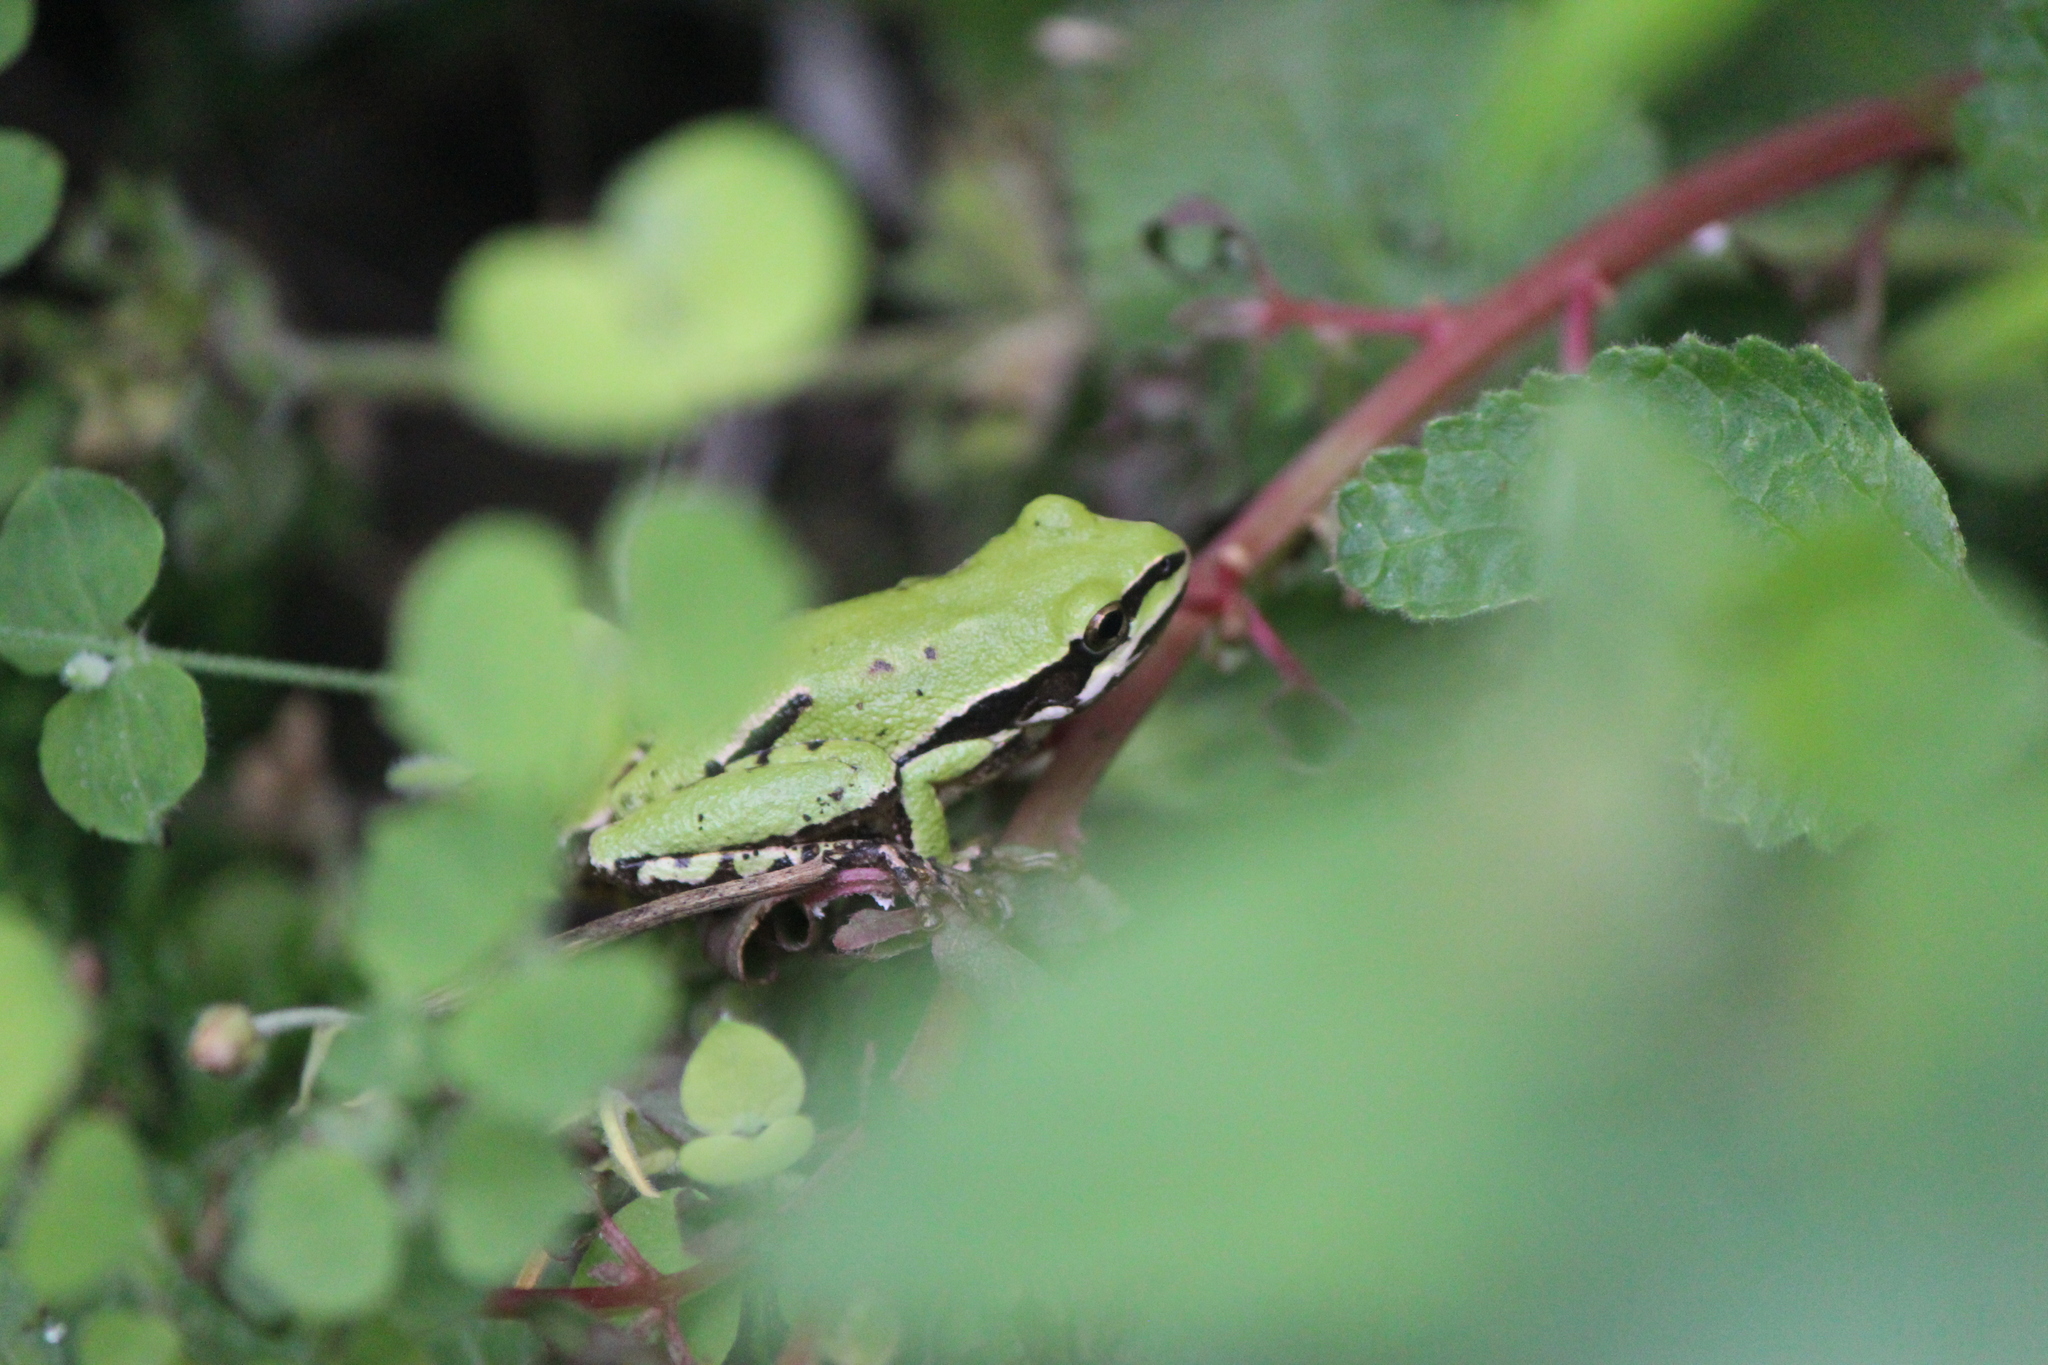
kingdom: Animalia
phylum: Chordata
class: Amphibia
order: Anura
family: Hylidae
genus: Dryophytes
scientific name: Dryophytes eximius
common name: Mountain treefrog
